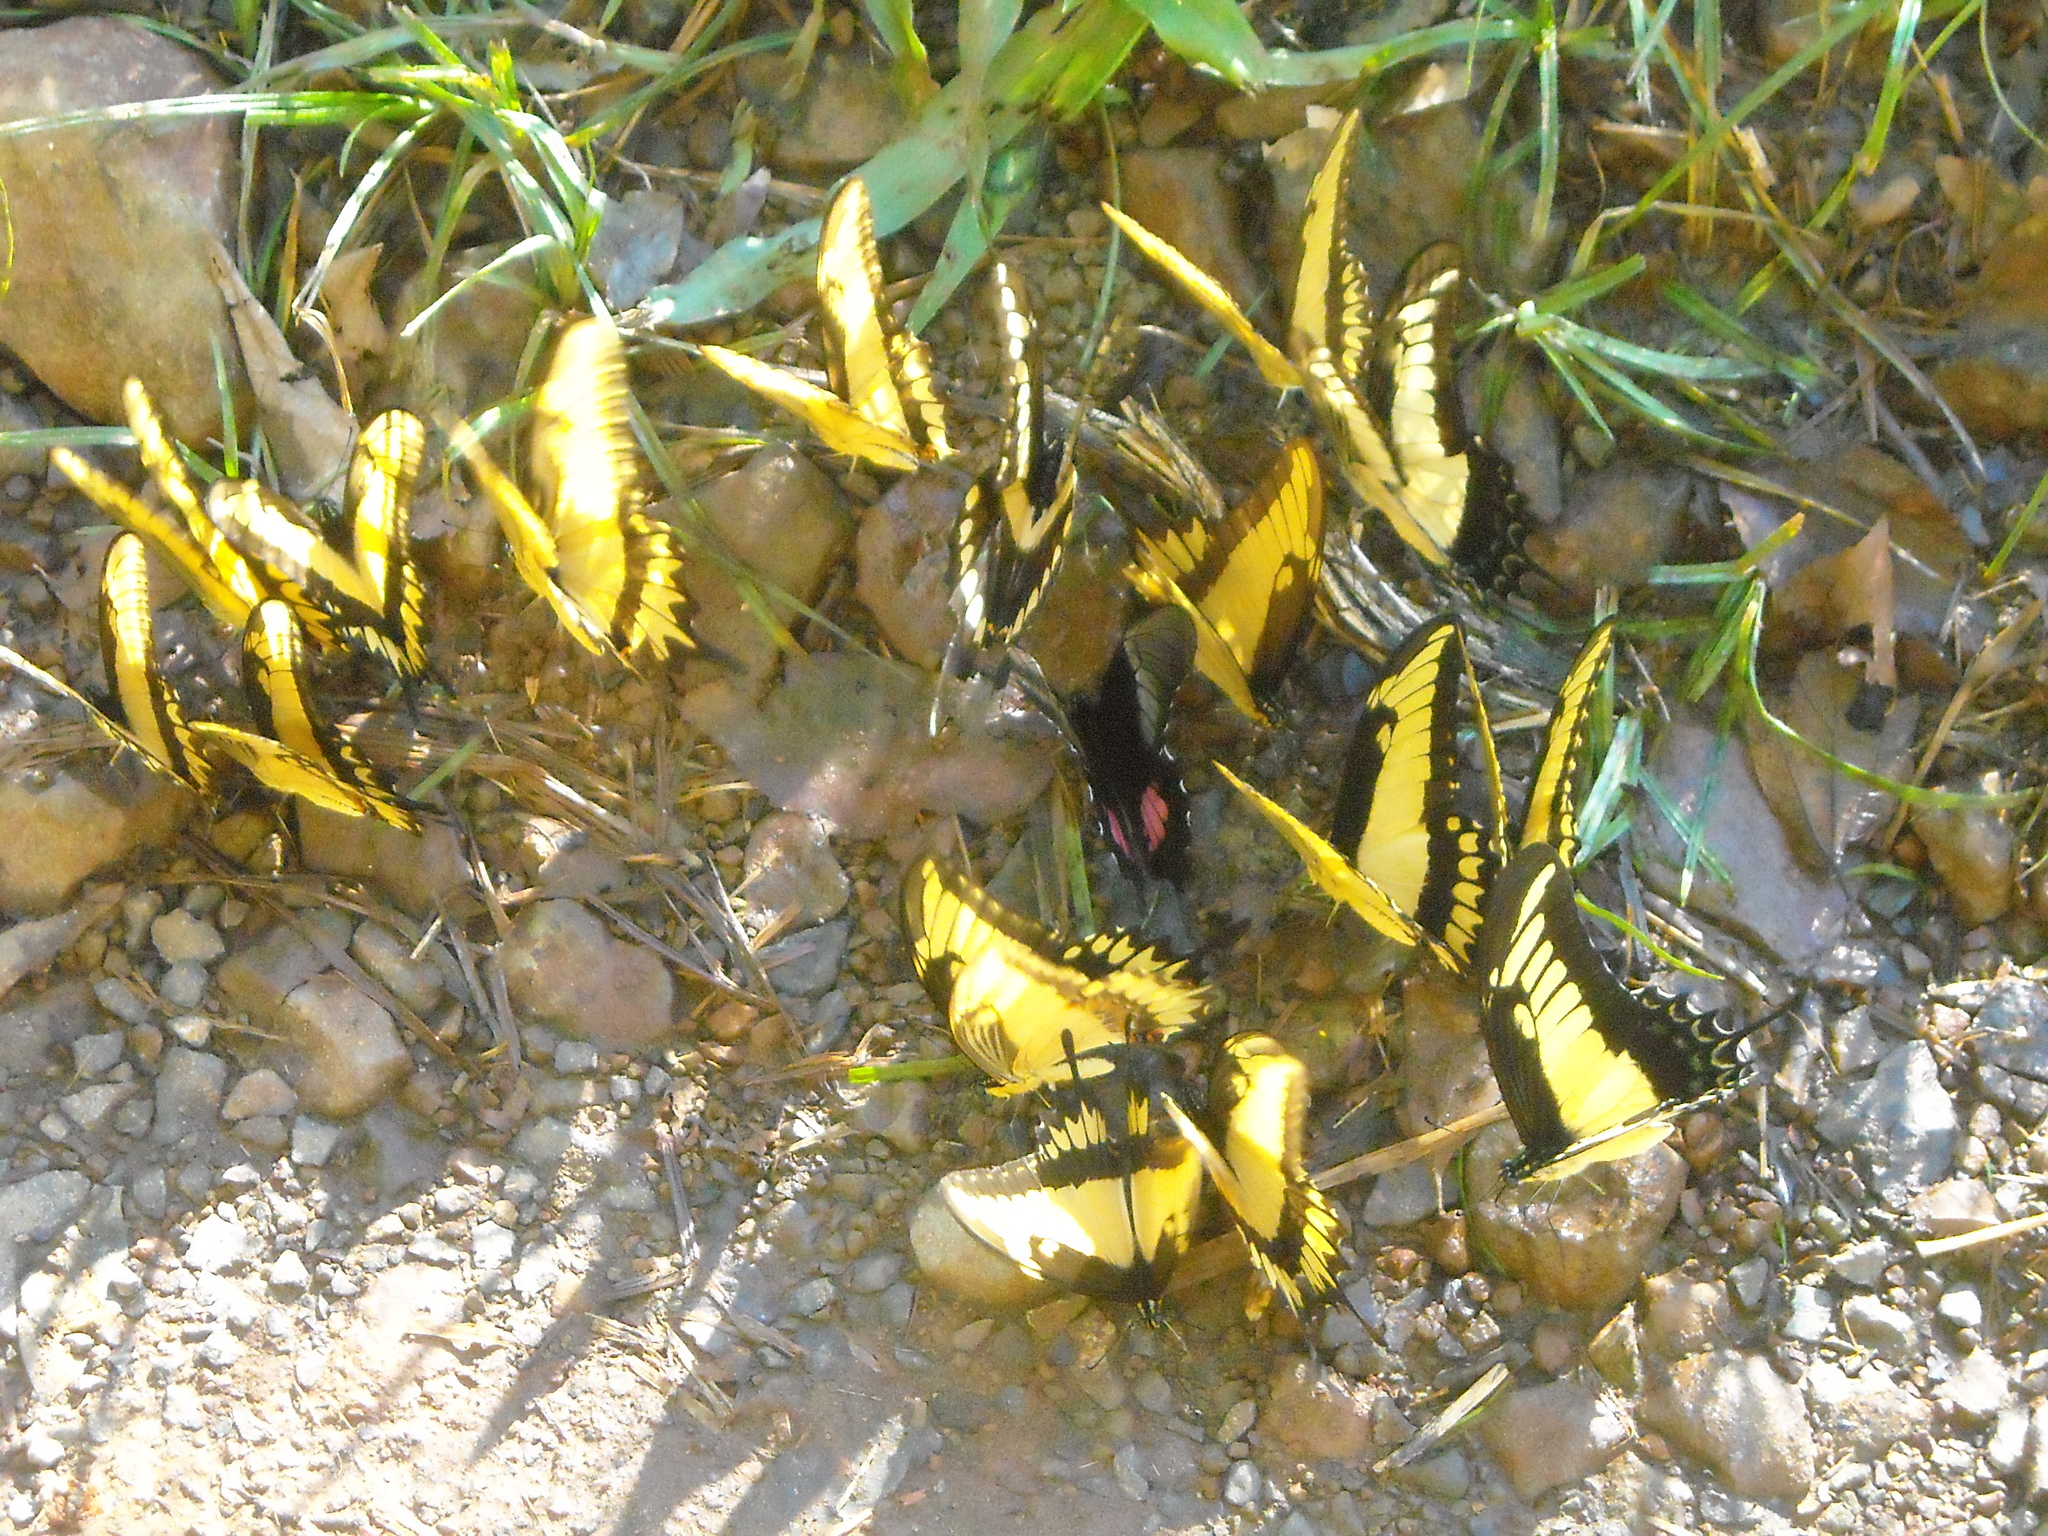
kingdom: Animalia
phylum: Arthropoda
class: Insecta
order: Lepidoptera
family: Papilionidae
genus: Papilio
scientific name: Papilio anchisiades
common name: Idaes swallowtail
